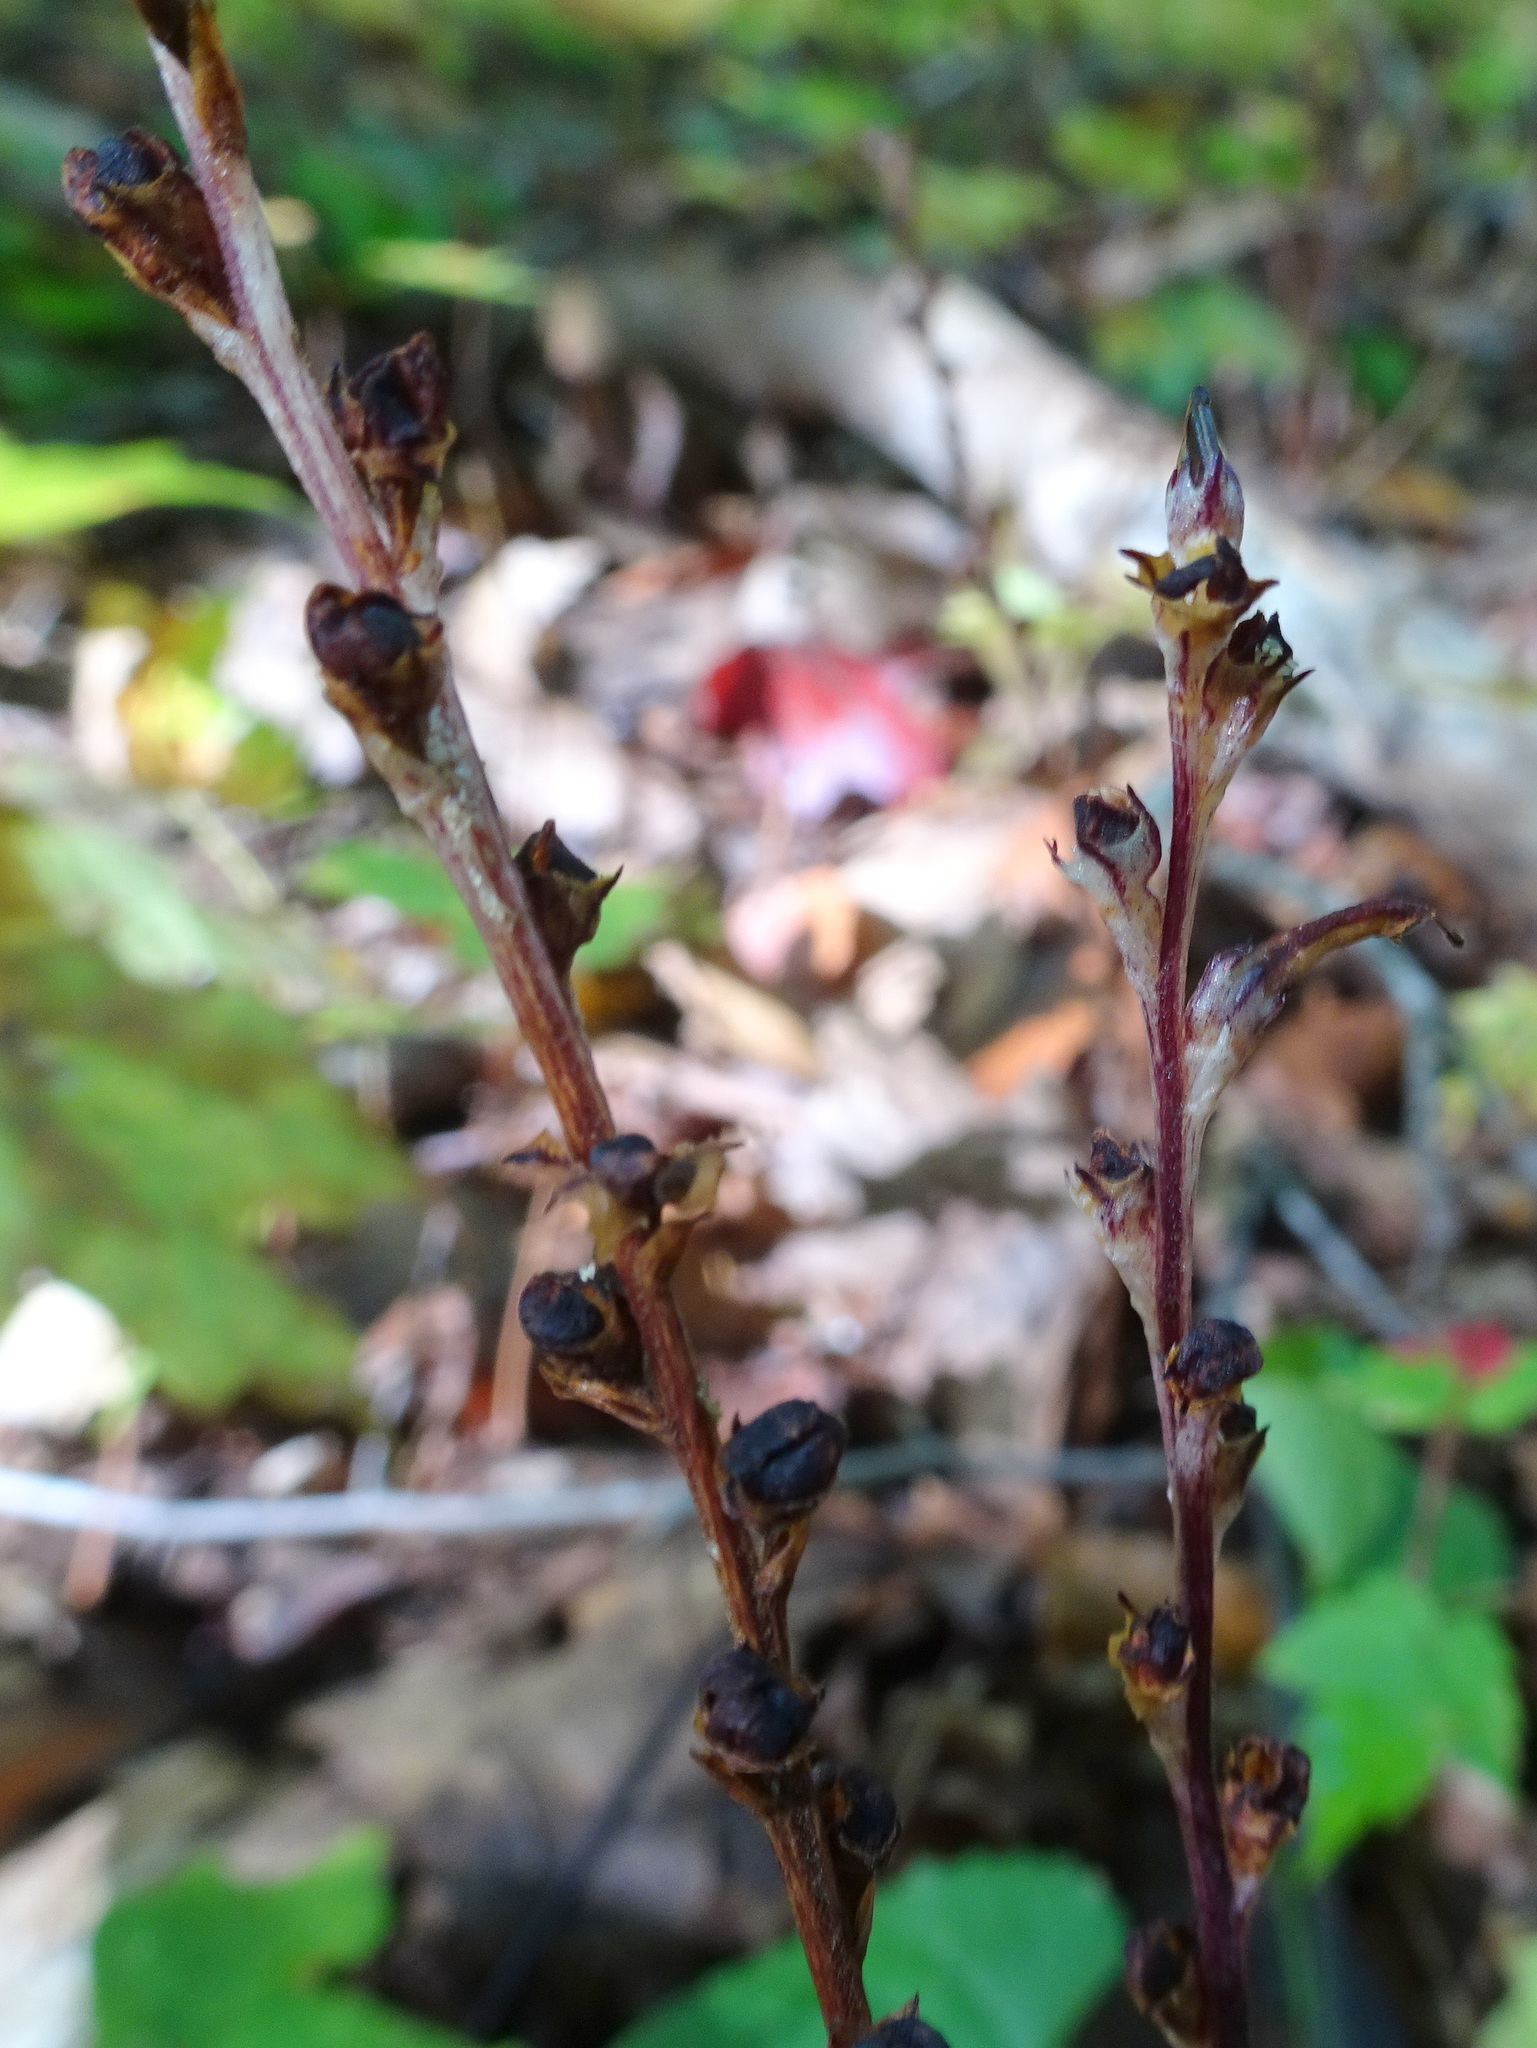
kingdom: Plantae
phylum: Tracheophyta
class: Magnoliopsida
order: Lamiales
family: Orobanchaceae
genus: Epifagus
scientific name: Epifagus virginiana
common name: Beechdrops
